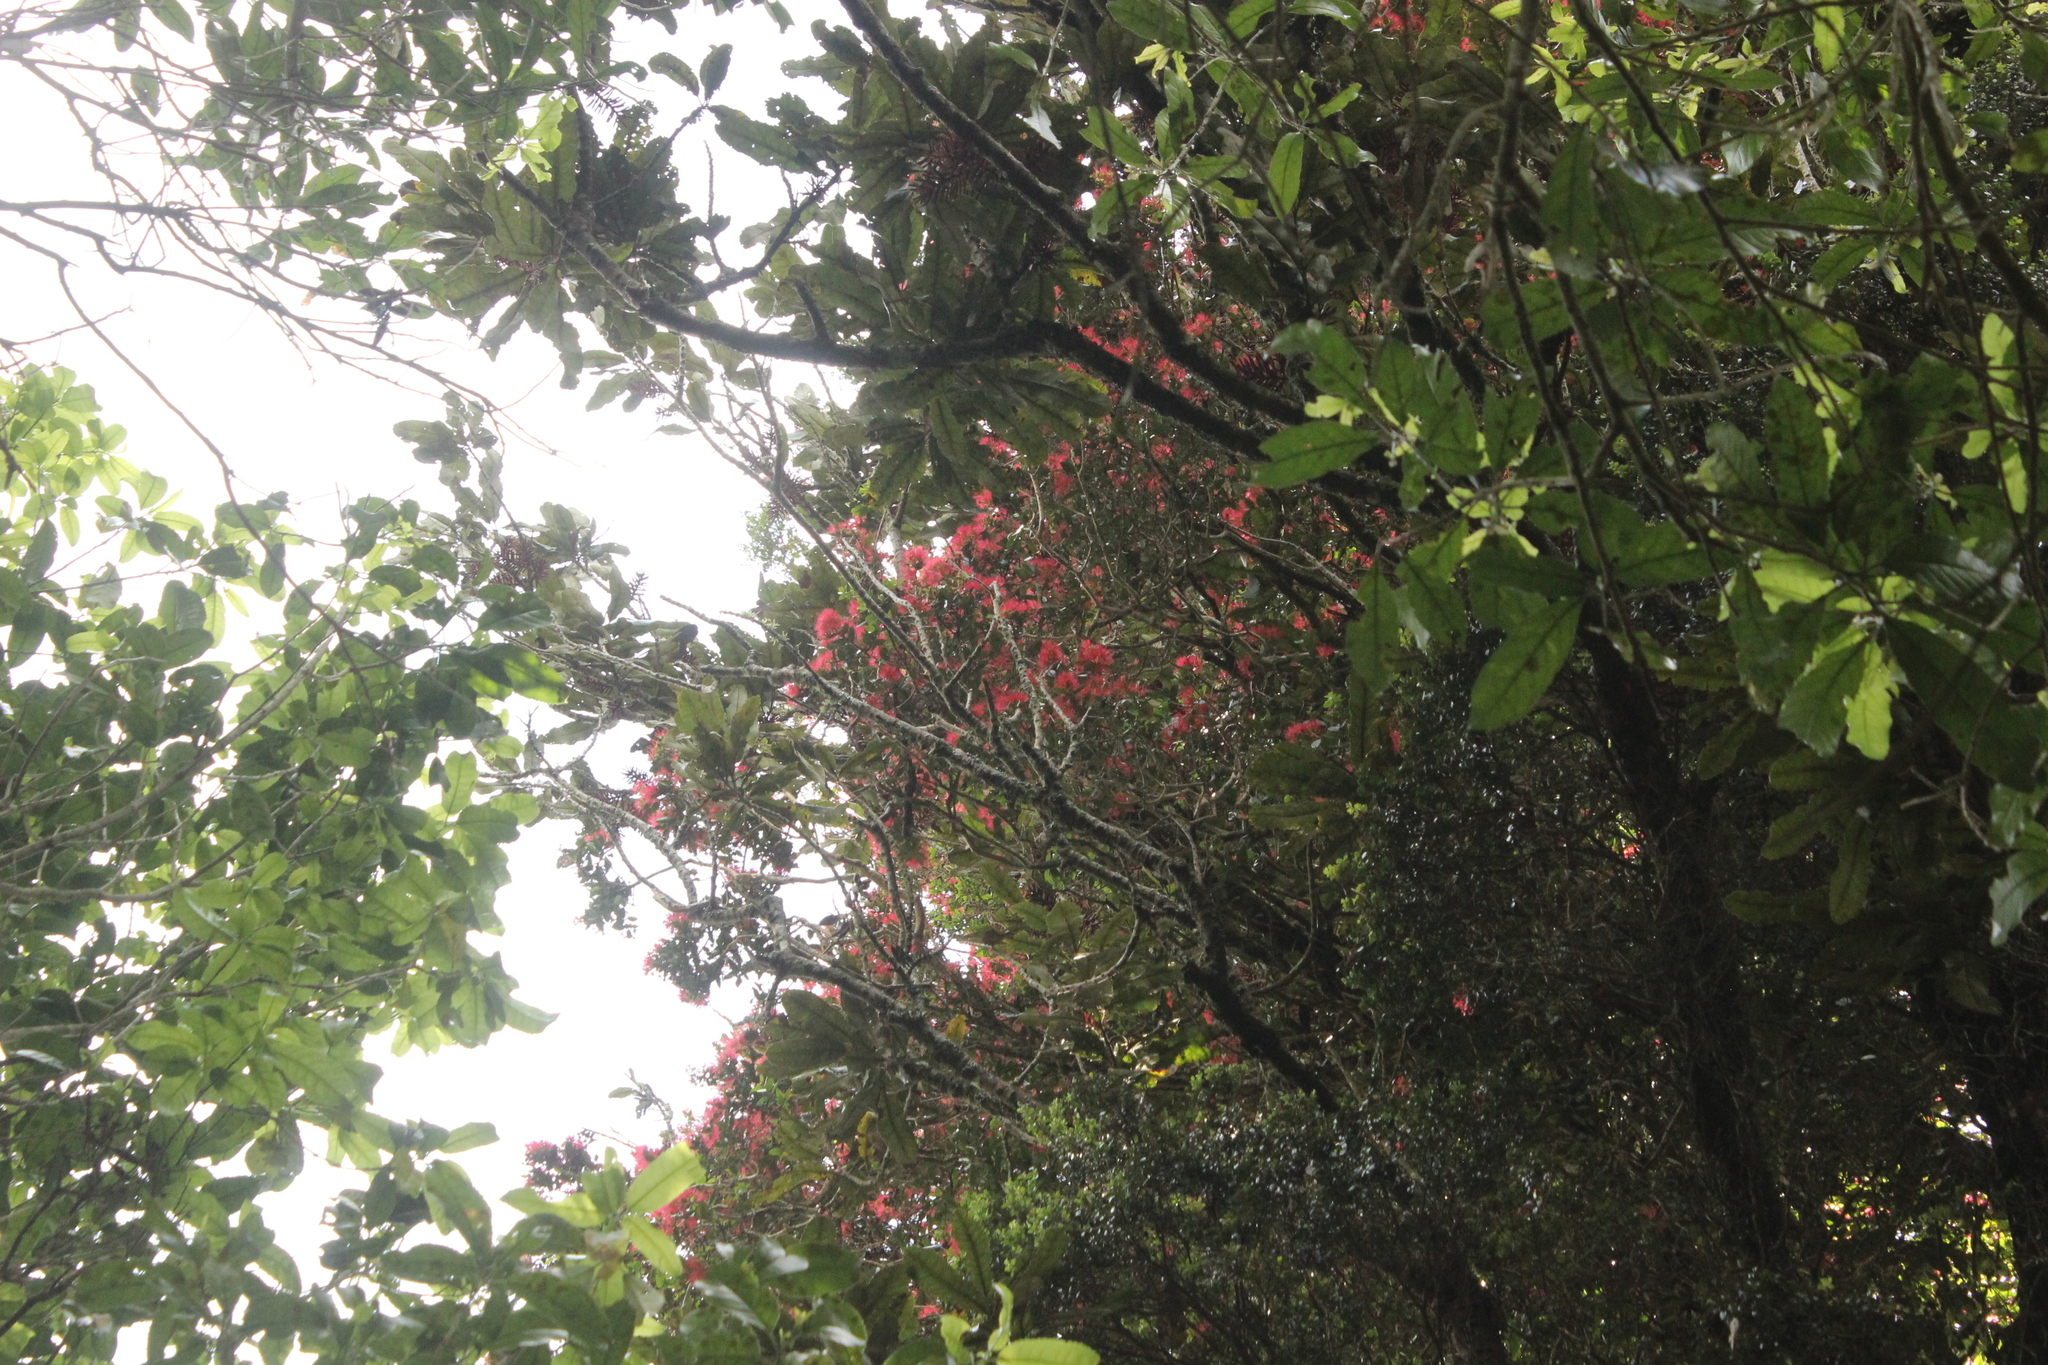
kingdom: Plantae
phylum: Tracheophyta
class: Magnoliopsida
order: Myrtales
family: Myrtaceae
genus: Metrosideros
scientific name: Metrosideros carminea
